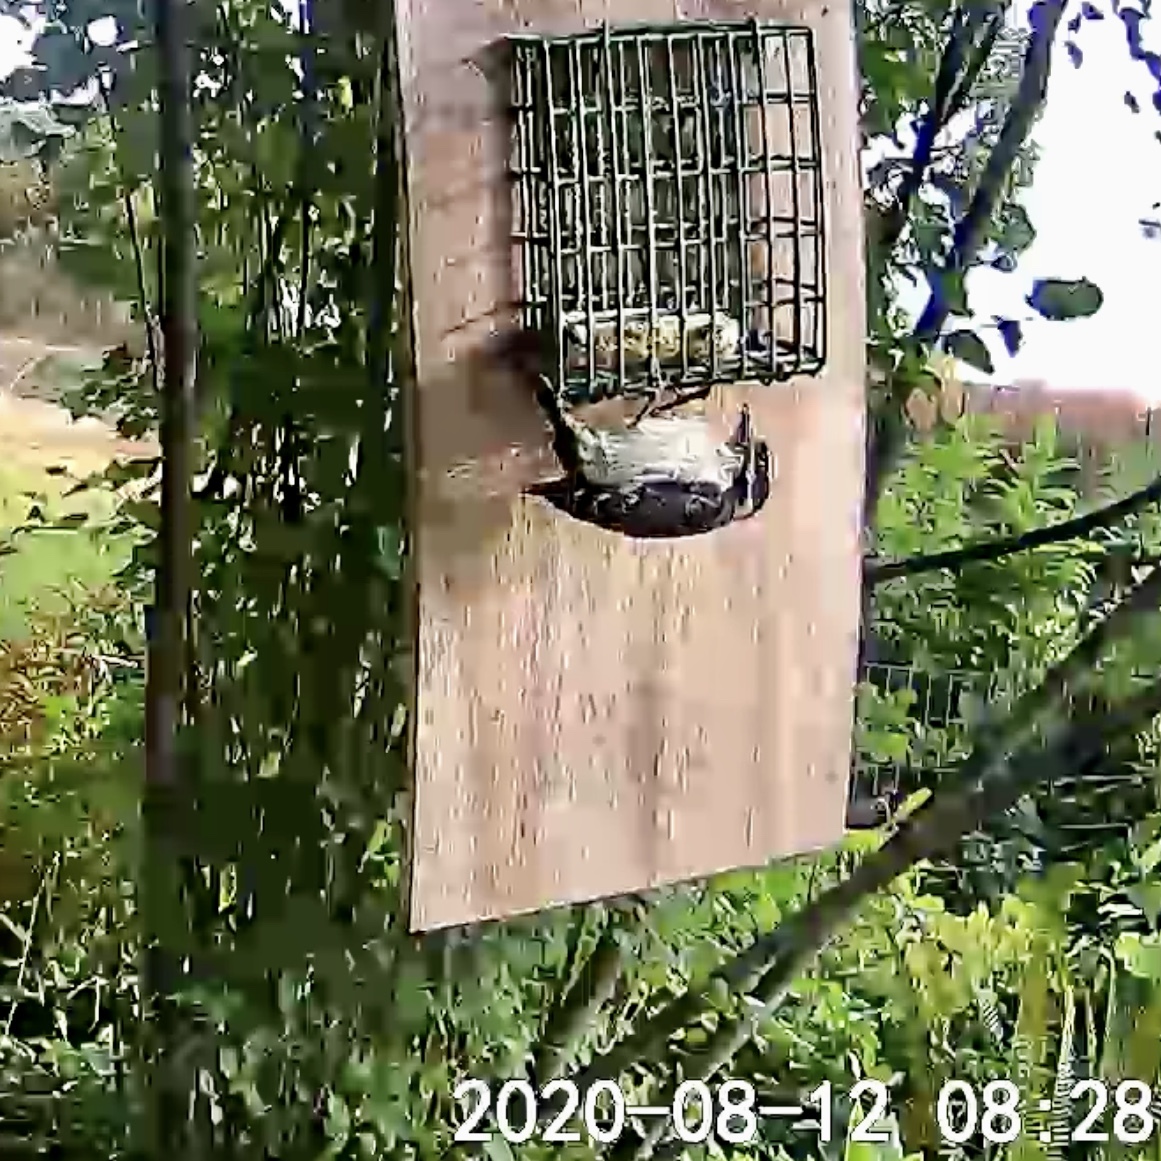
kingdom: Animalia
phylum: Chordata
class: Aves
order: Piciformes
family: Picidae
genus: Dryobates
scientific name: Dryobates pubescens
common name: Downy woodpecker
